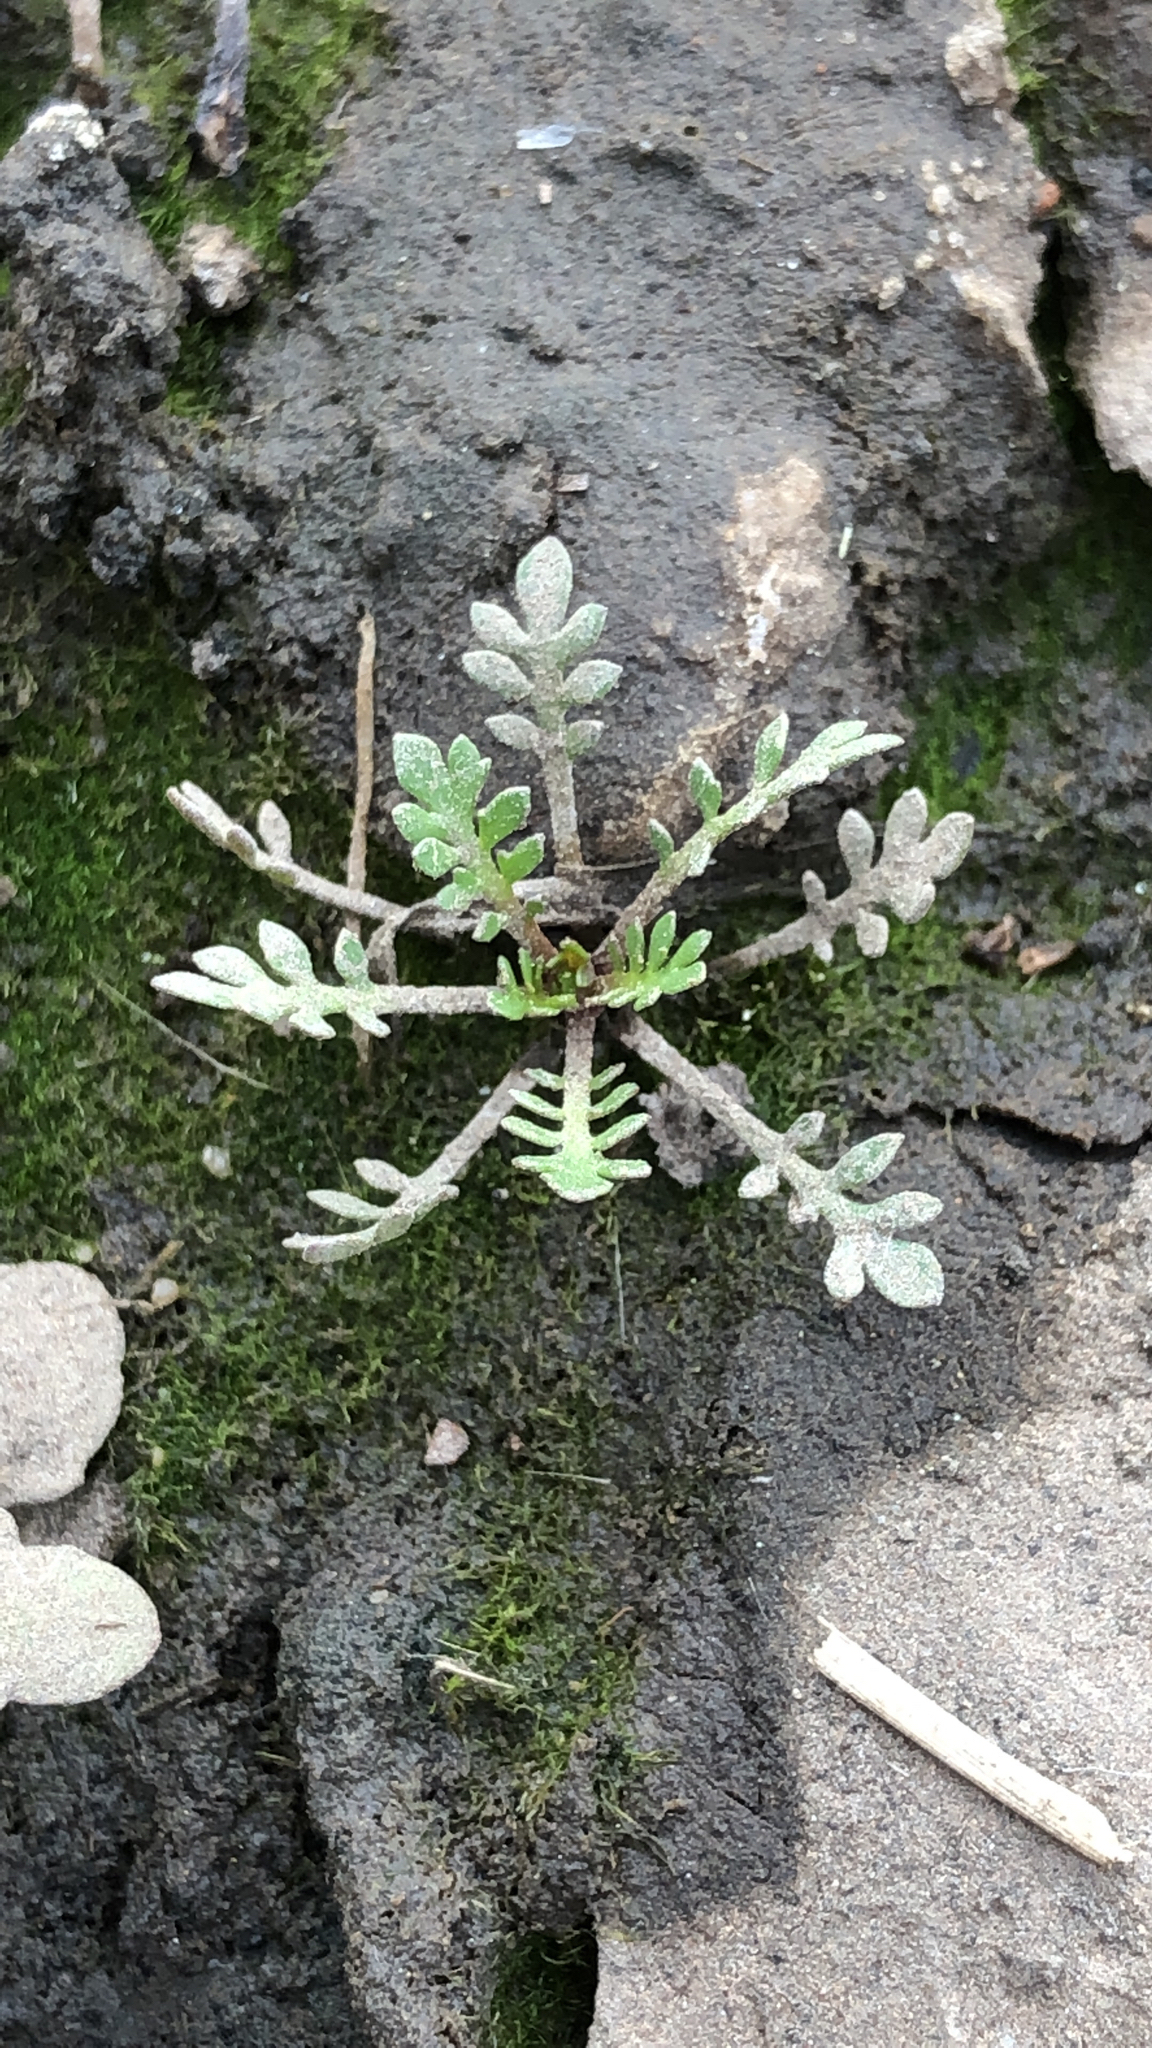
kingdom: Plantae
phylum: Tracheophyta
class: Magnoliopsida
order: Brassicales
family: Brassicaceae
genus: Planodes
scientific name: Planodes virginicum
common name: Virginia cress
